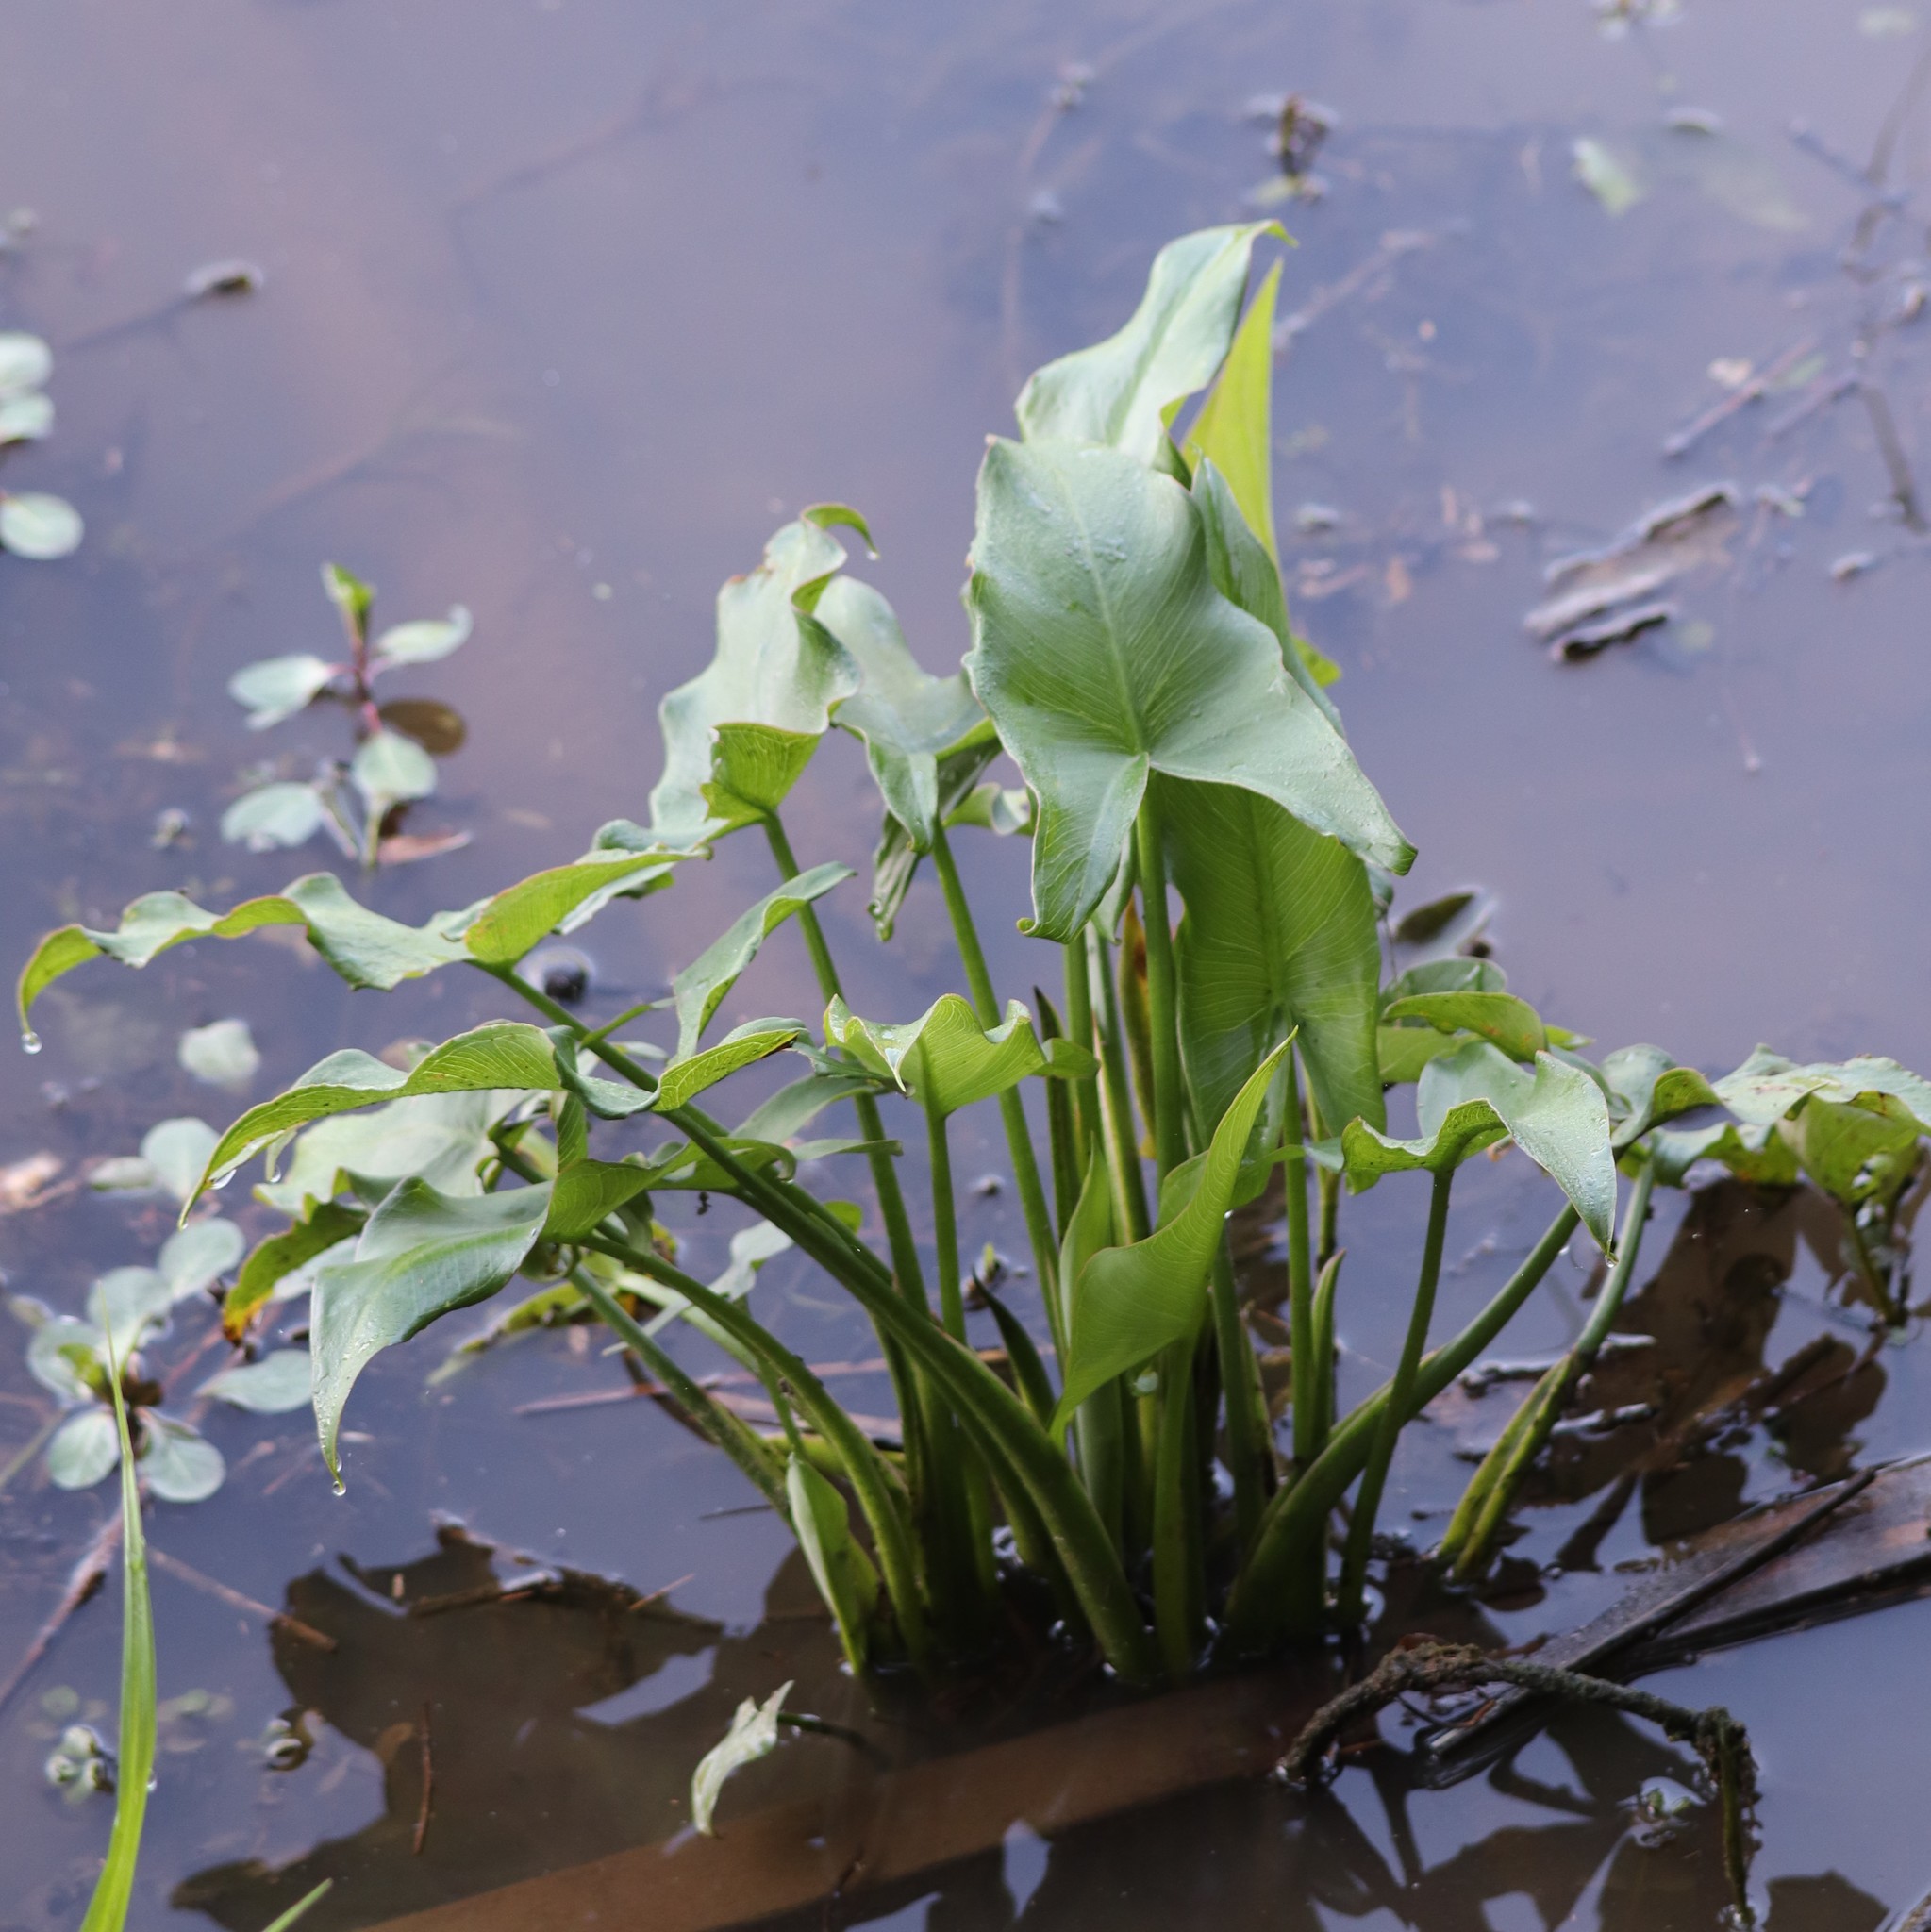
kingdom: Plantae
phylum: Tracheophyta
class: Liliopsida
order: Alismatales
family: Araceae
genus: Peltandra
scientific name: Peltandra virginica
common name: Arrow arum
